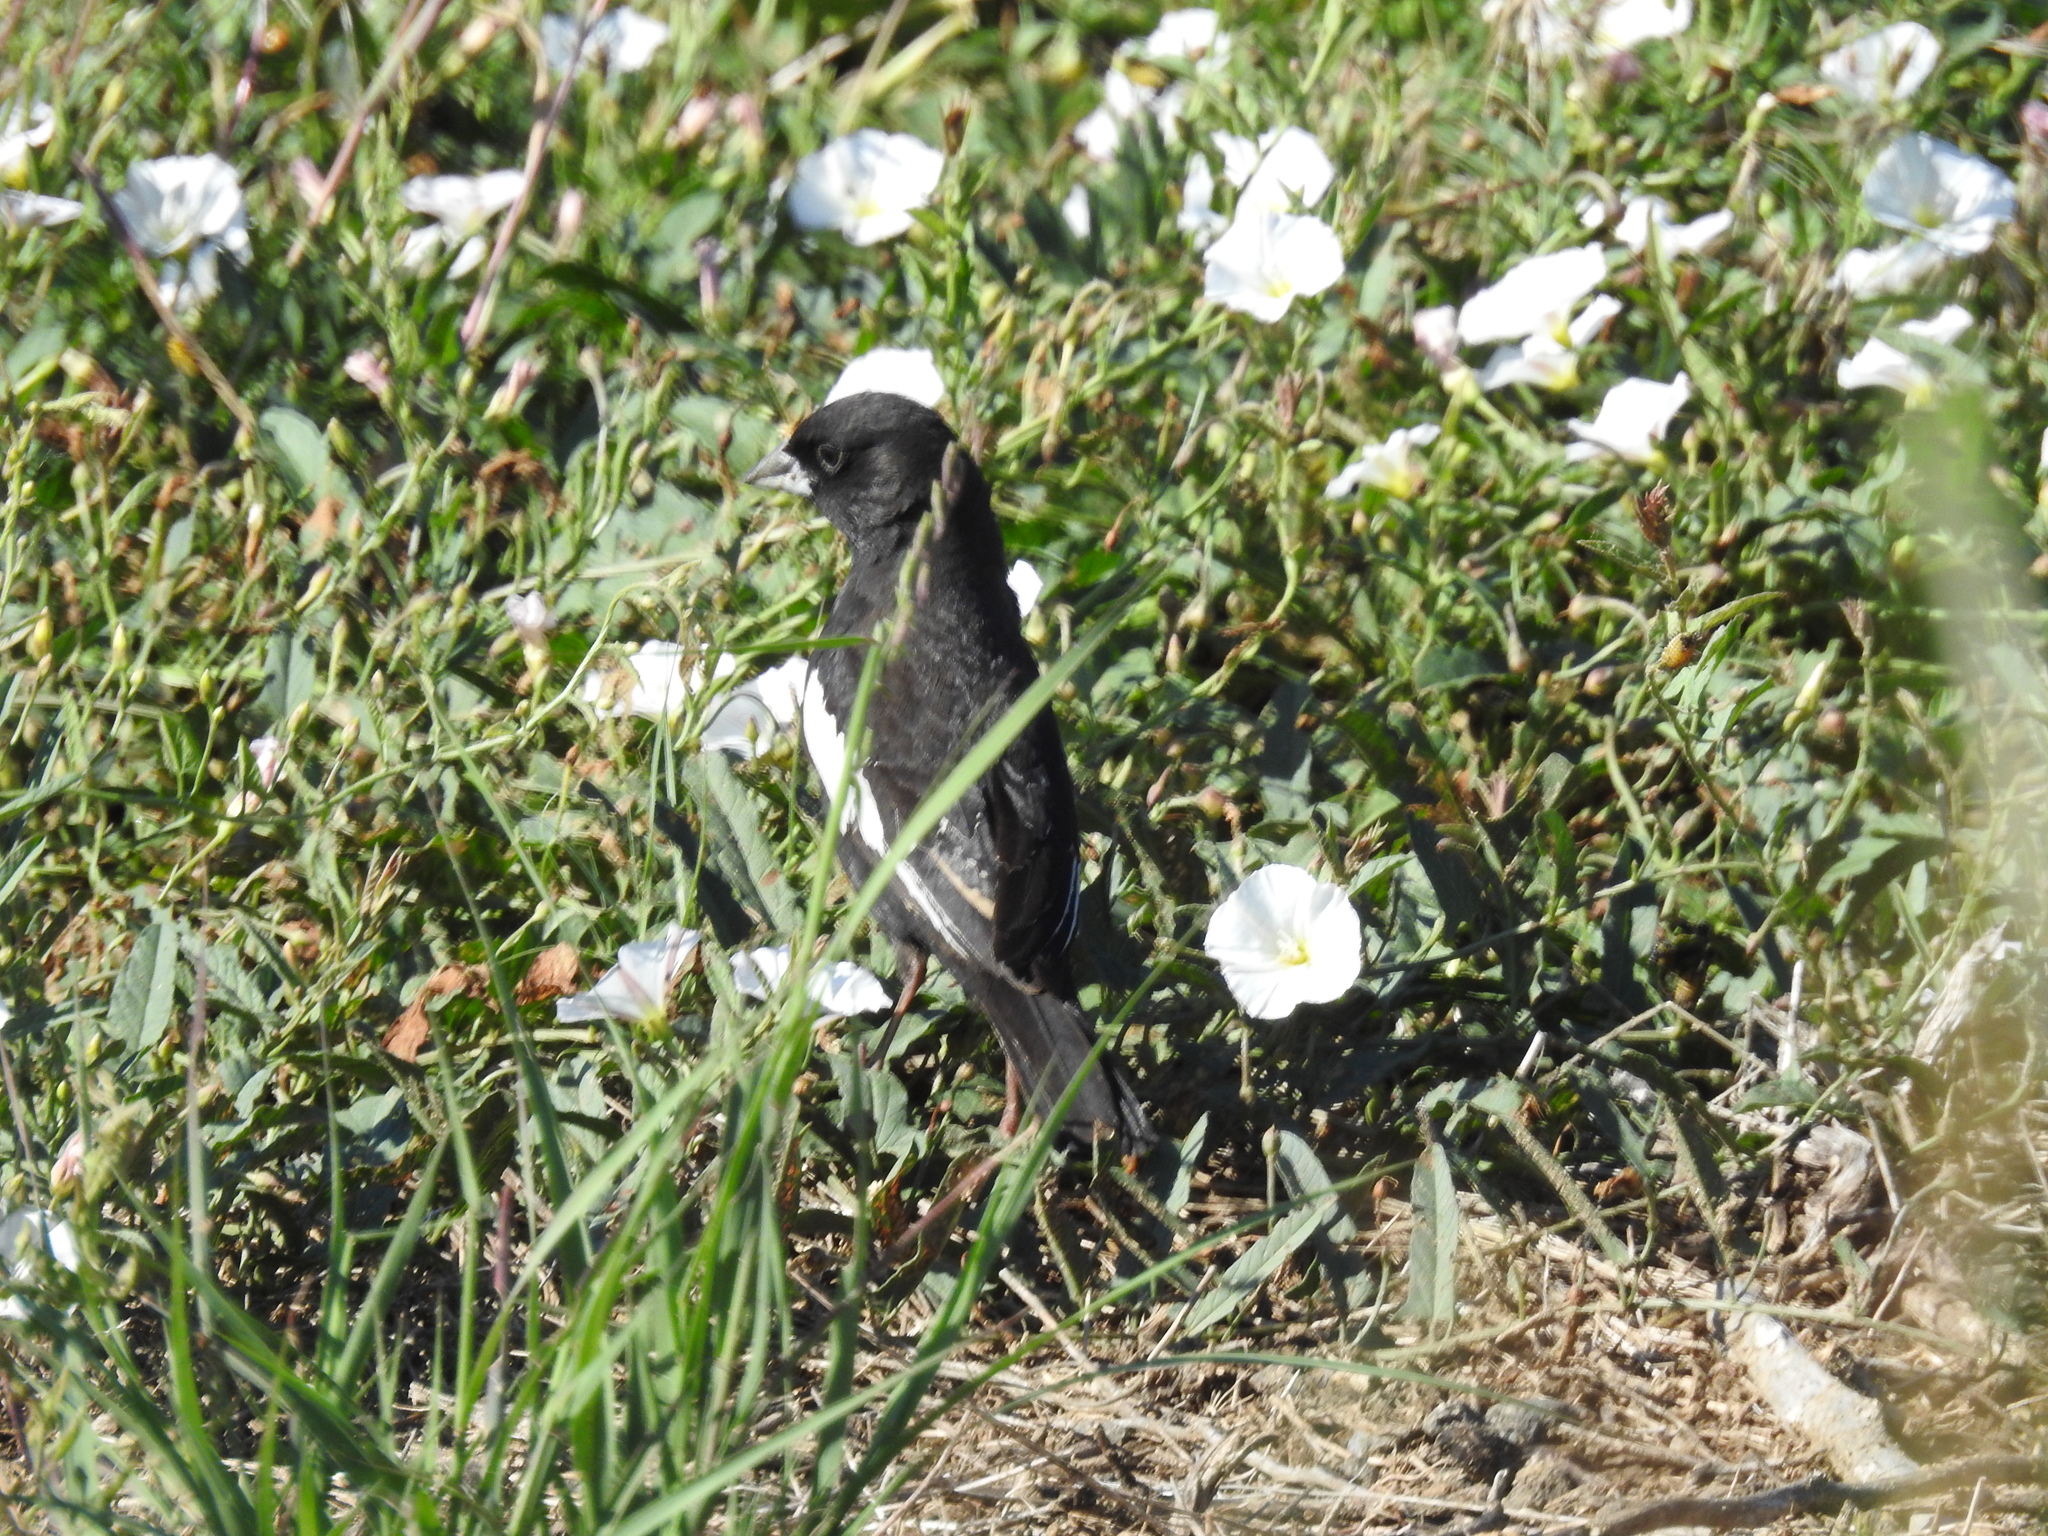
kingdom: Animalia
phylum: Chordata
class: Aves
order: Passeriformes
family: Passerellidae
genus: Calamospiza
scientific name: Calamospiza melanocorys
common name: Lark bunting
